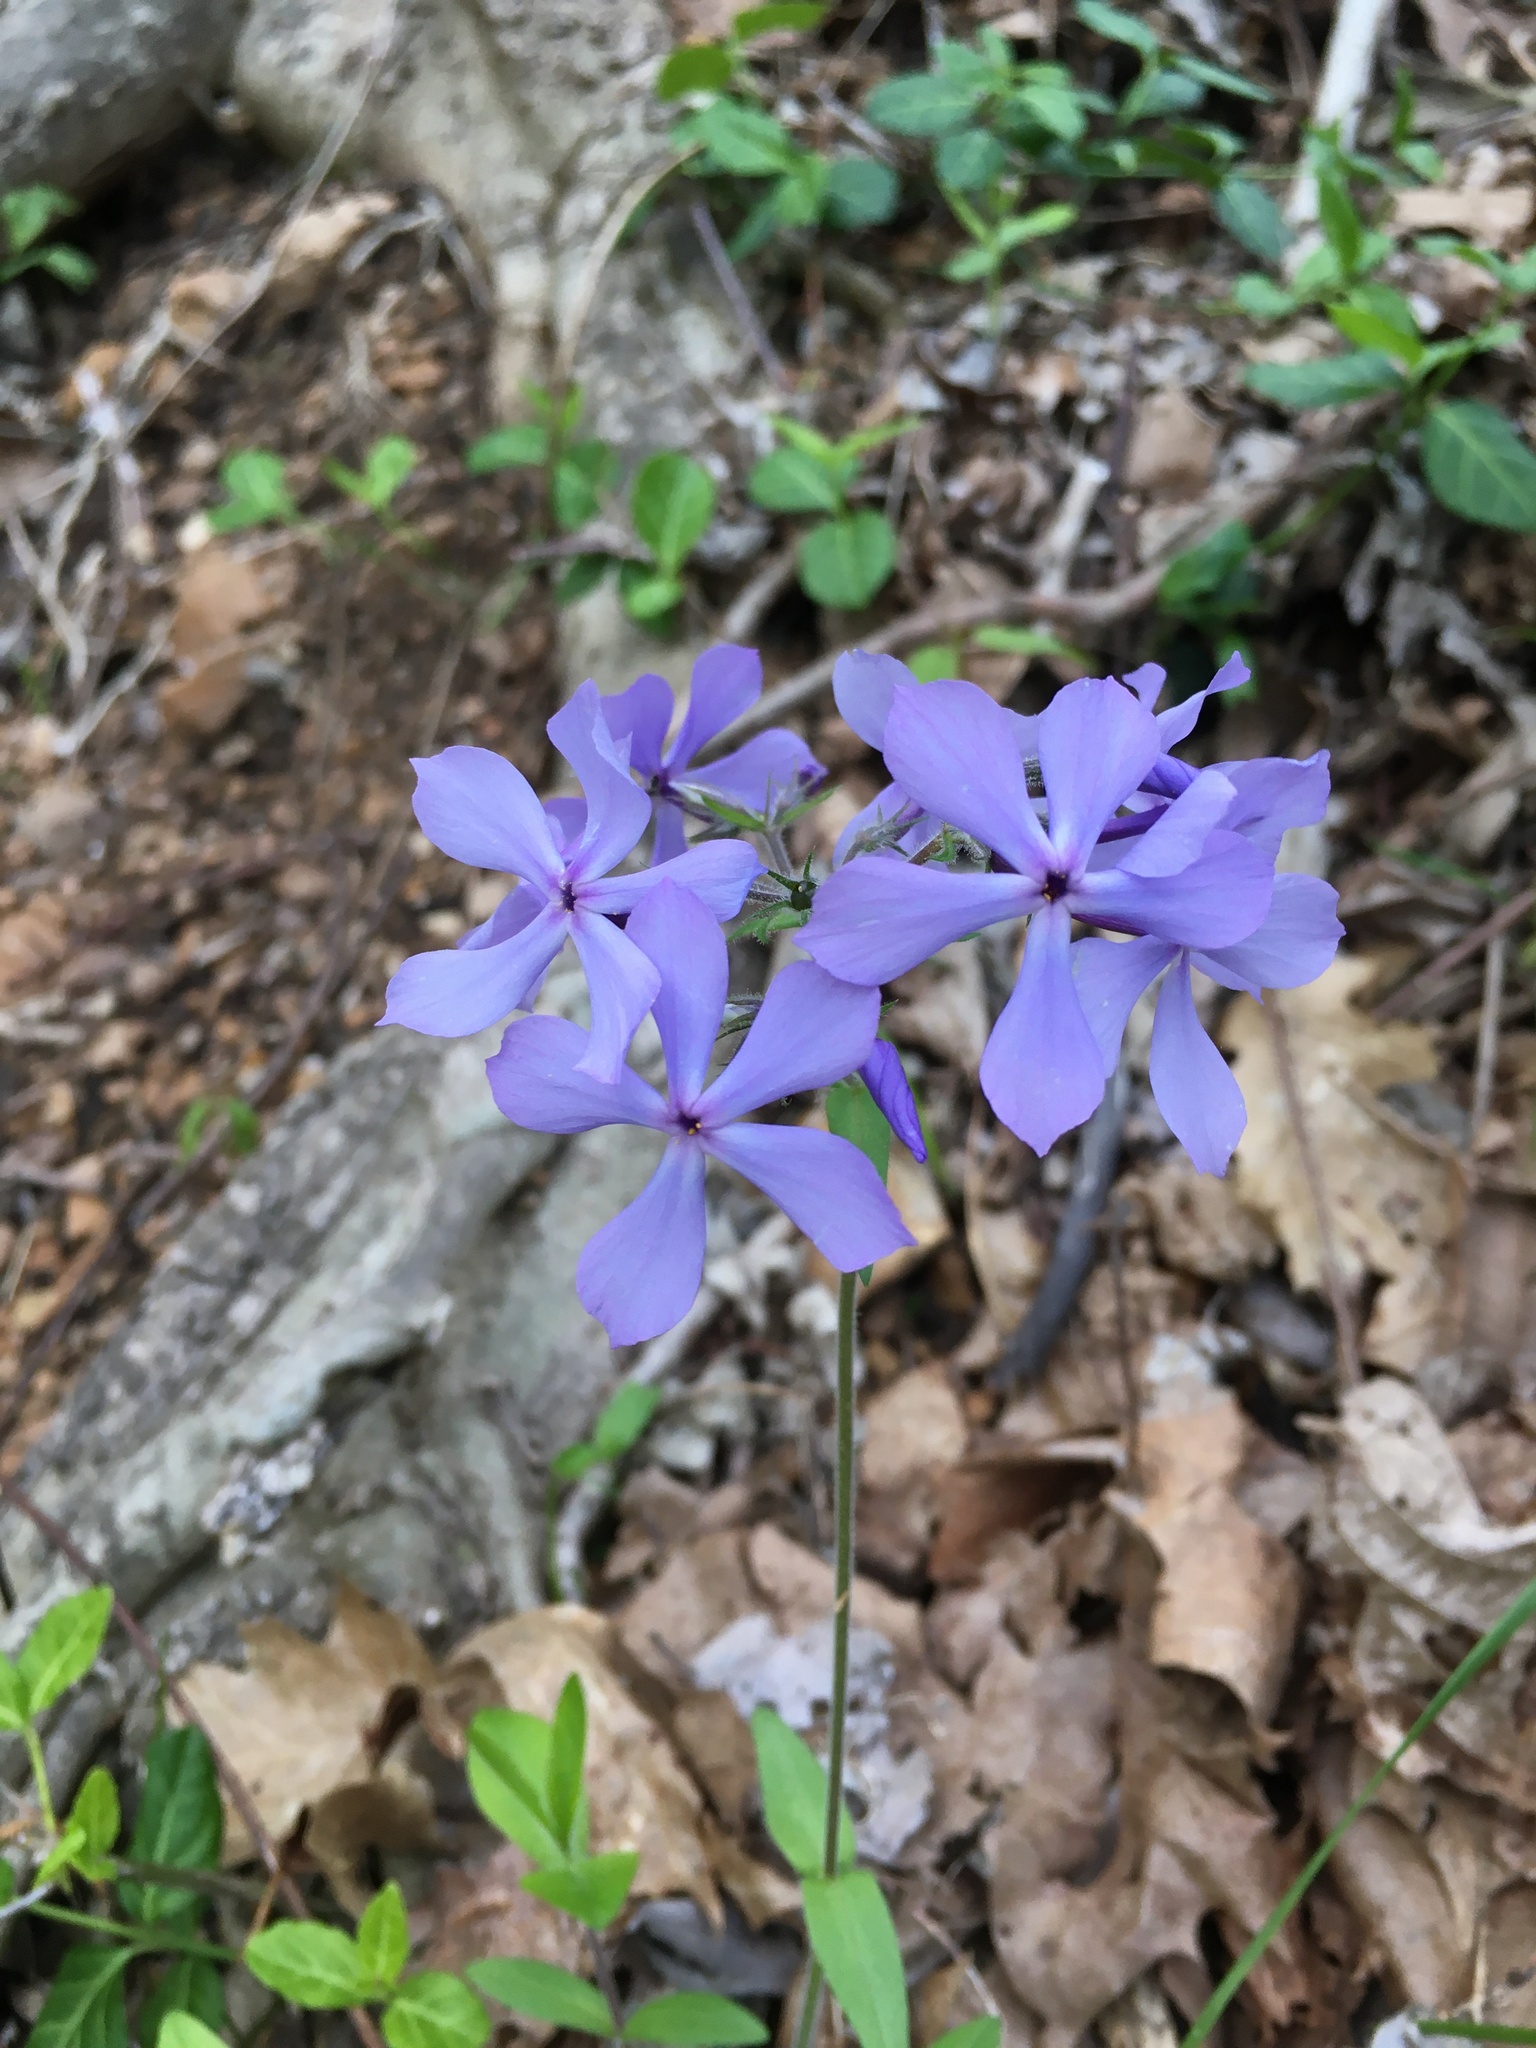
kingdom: Plantae
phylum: Tracheophyta
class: Magnoliopsida
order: Ericales
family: Polemoniaceae
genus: Phlox
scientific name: Phlox divaricata
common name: Blue phlox
